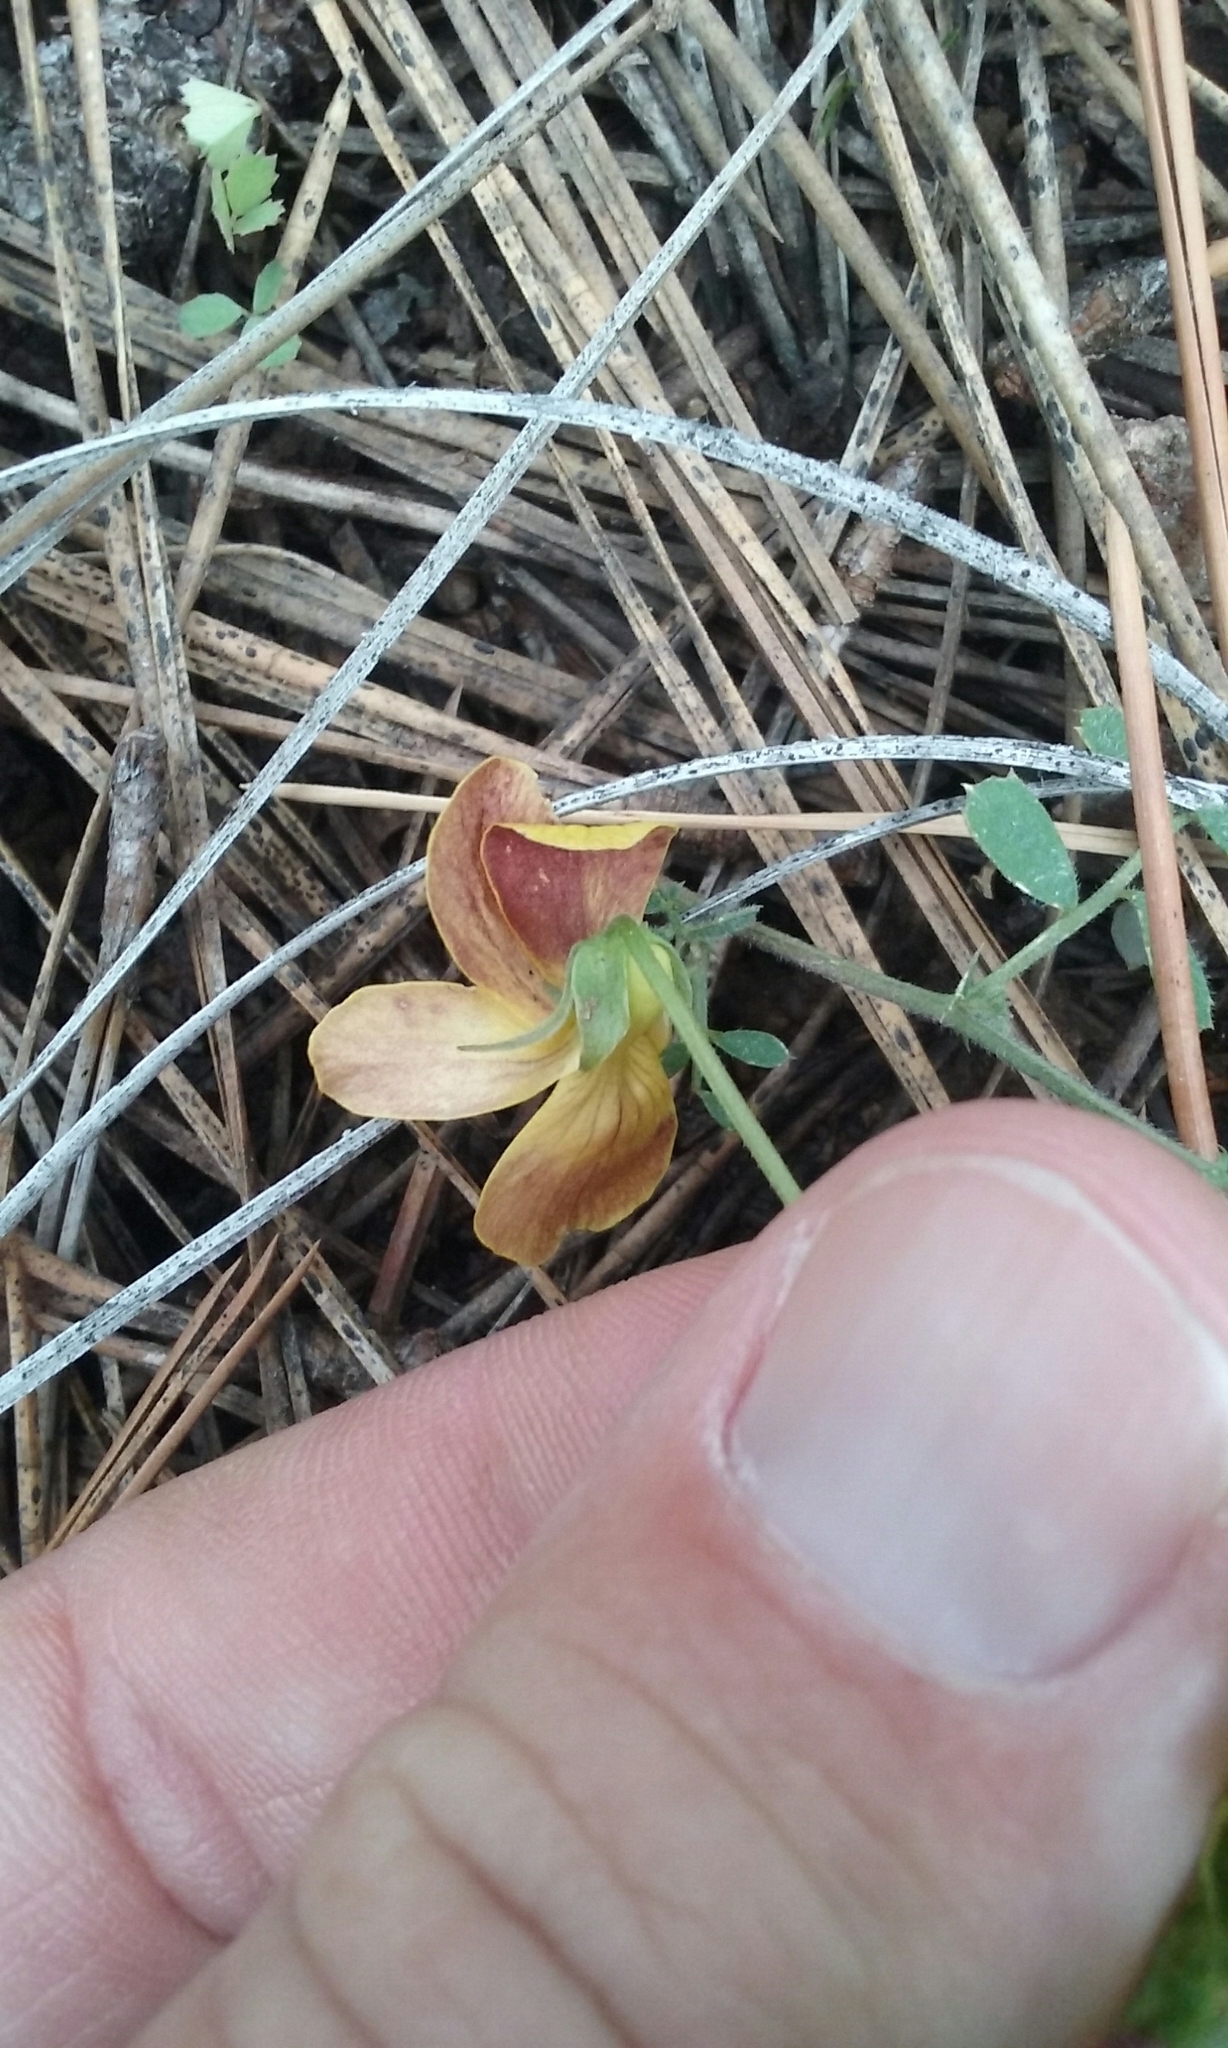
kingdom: Plantae
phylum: Tracheophyta
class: Magnoliopsida
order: Malpighiales
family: Violaceae
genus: Viola
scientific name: Viola lobata
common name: Pine violet
